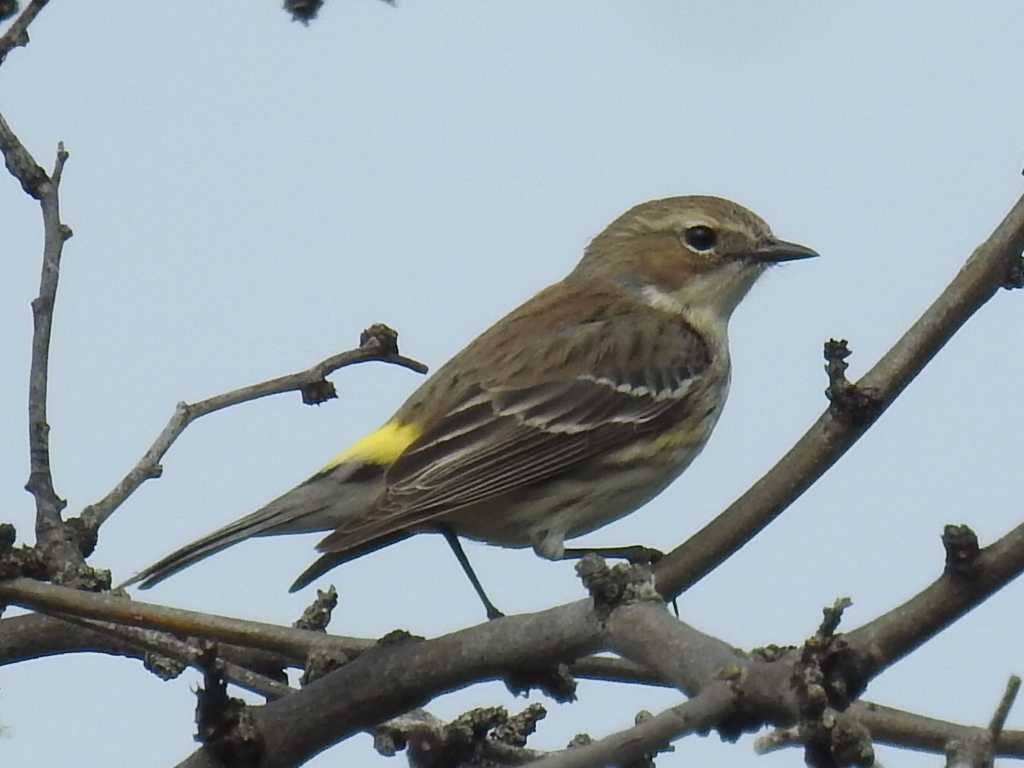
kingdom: Animalia
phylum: Chordata
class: Aves
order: Passeriformes
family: Parulidae
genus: Setophaga
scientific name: Setophaga coronata
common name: Myrtle warbler
